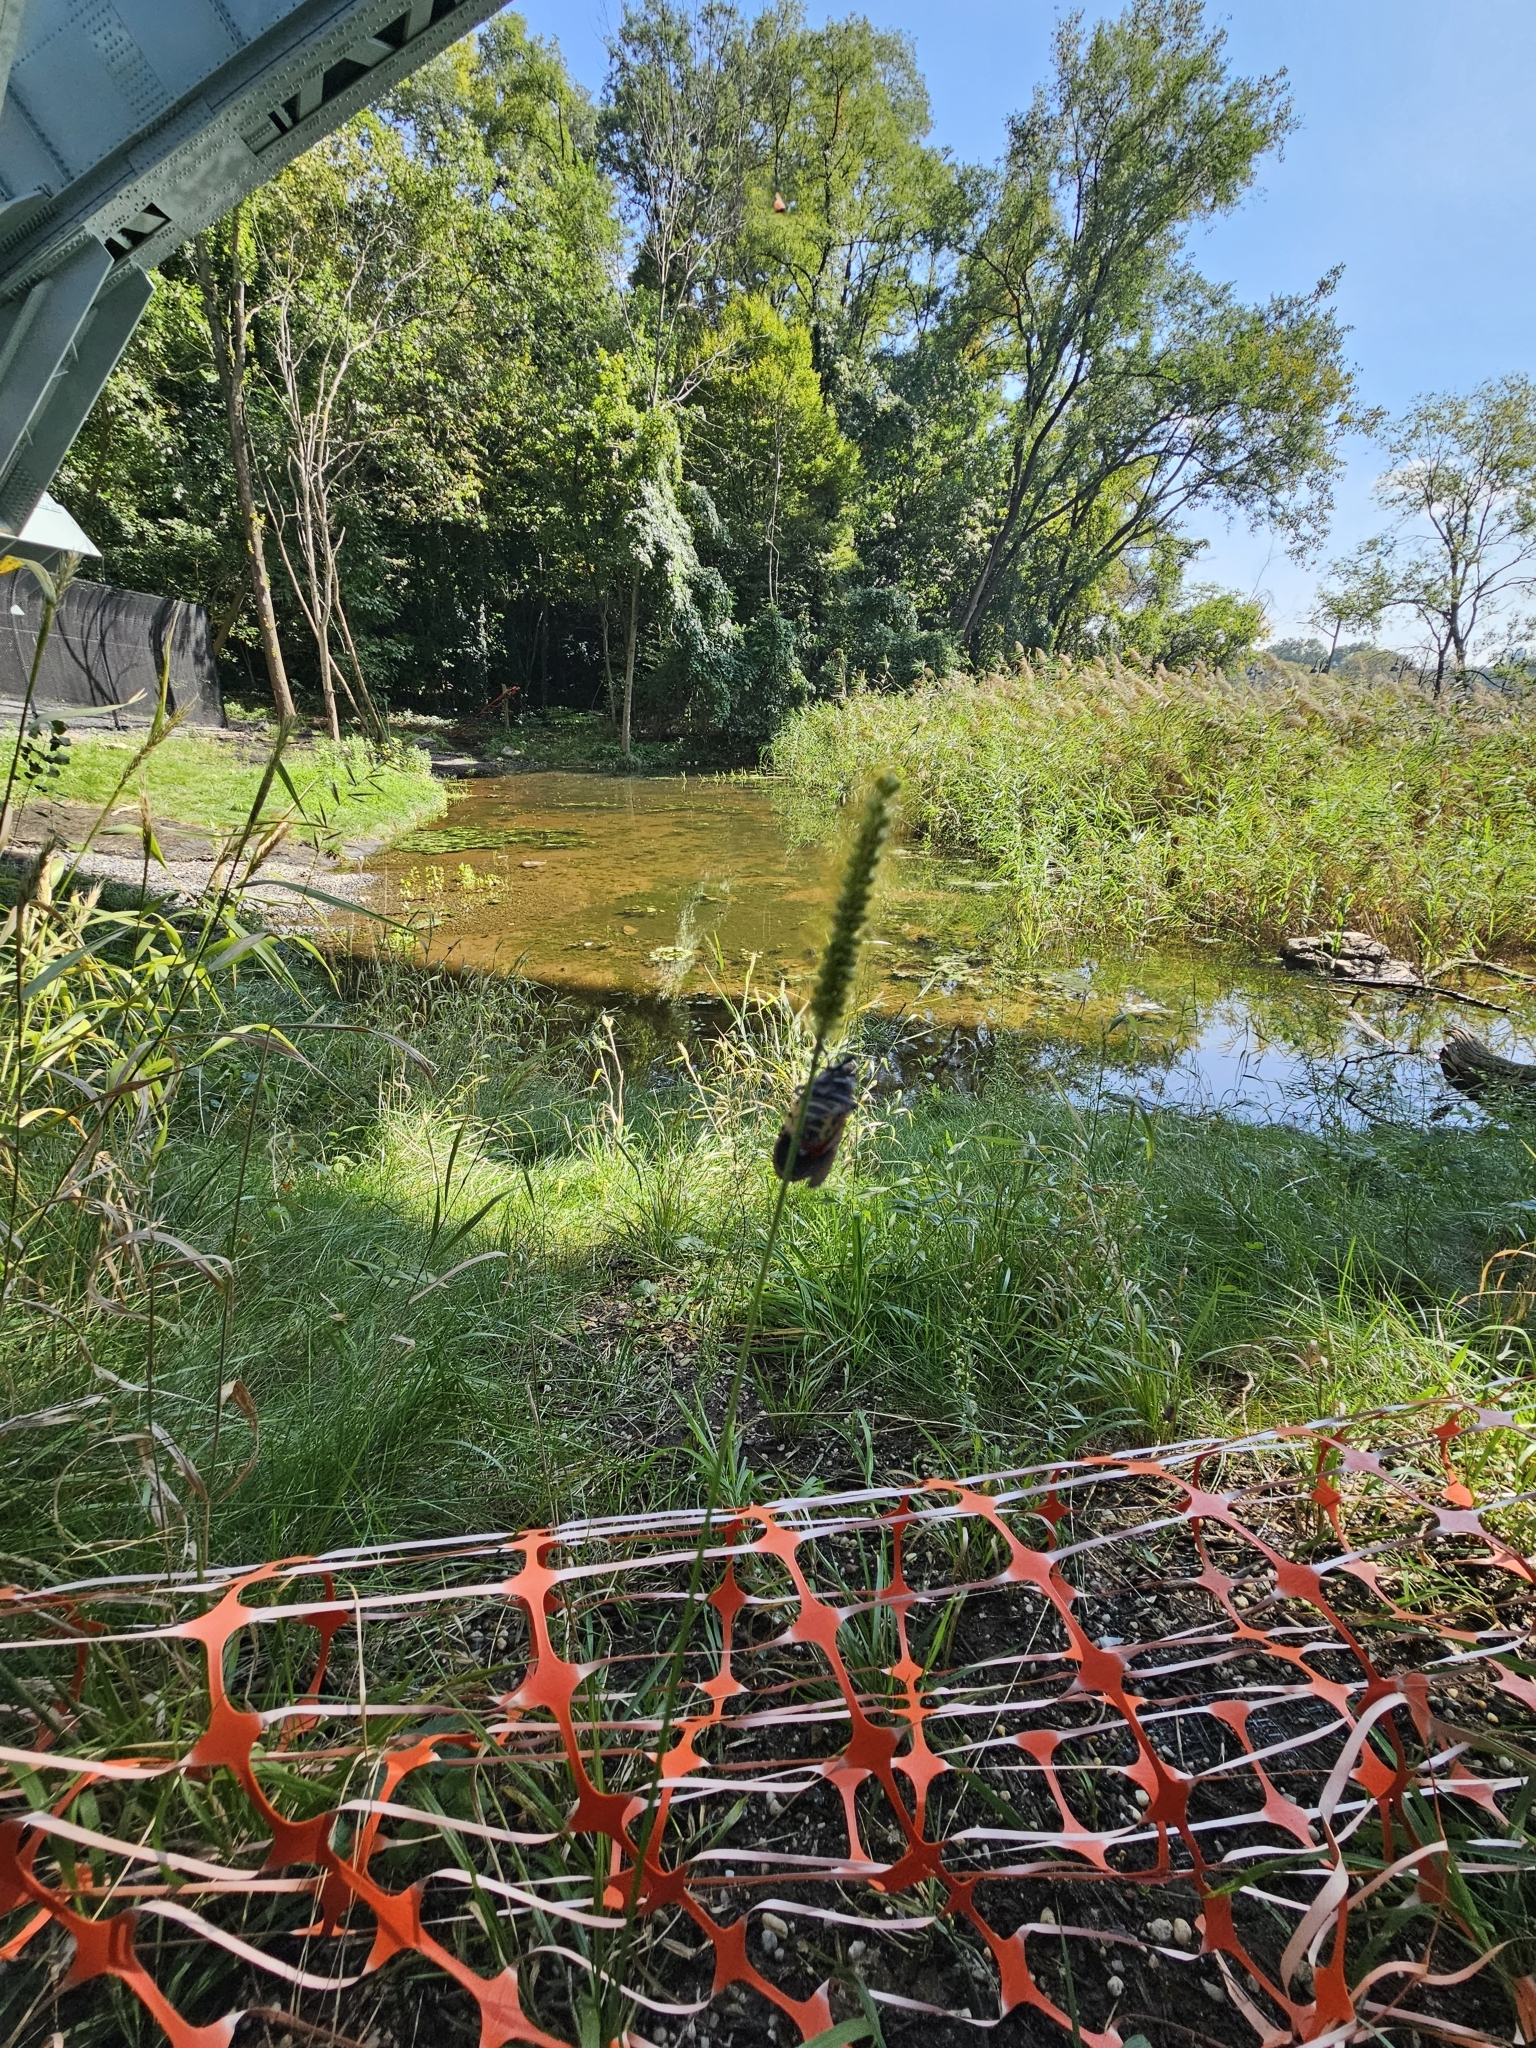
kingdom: Animalia
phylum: Arthropoda
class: Insecta
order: Hemiptera
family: Fulgoridae
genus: Lycorma
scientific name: Lycorma delicatula
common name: Spotted lanternfly
